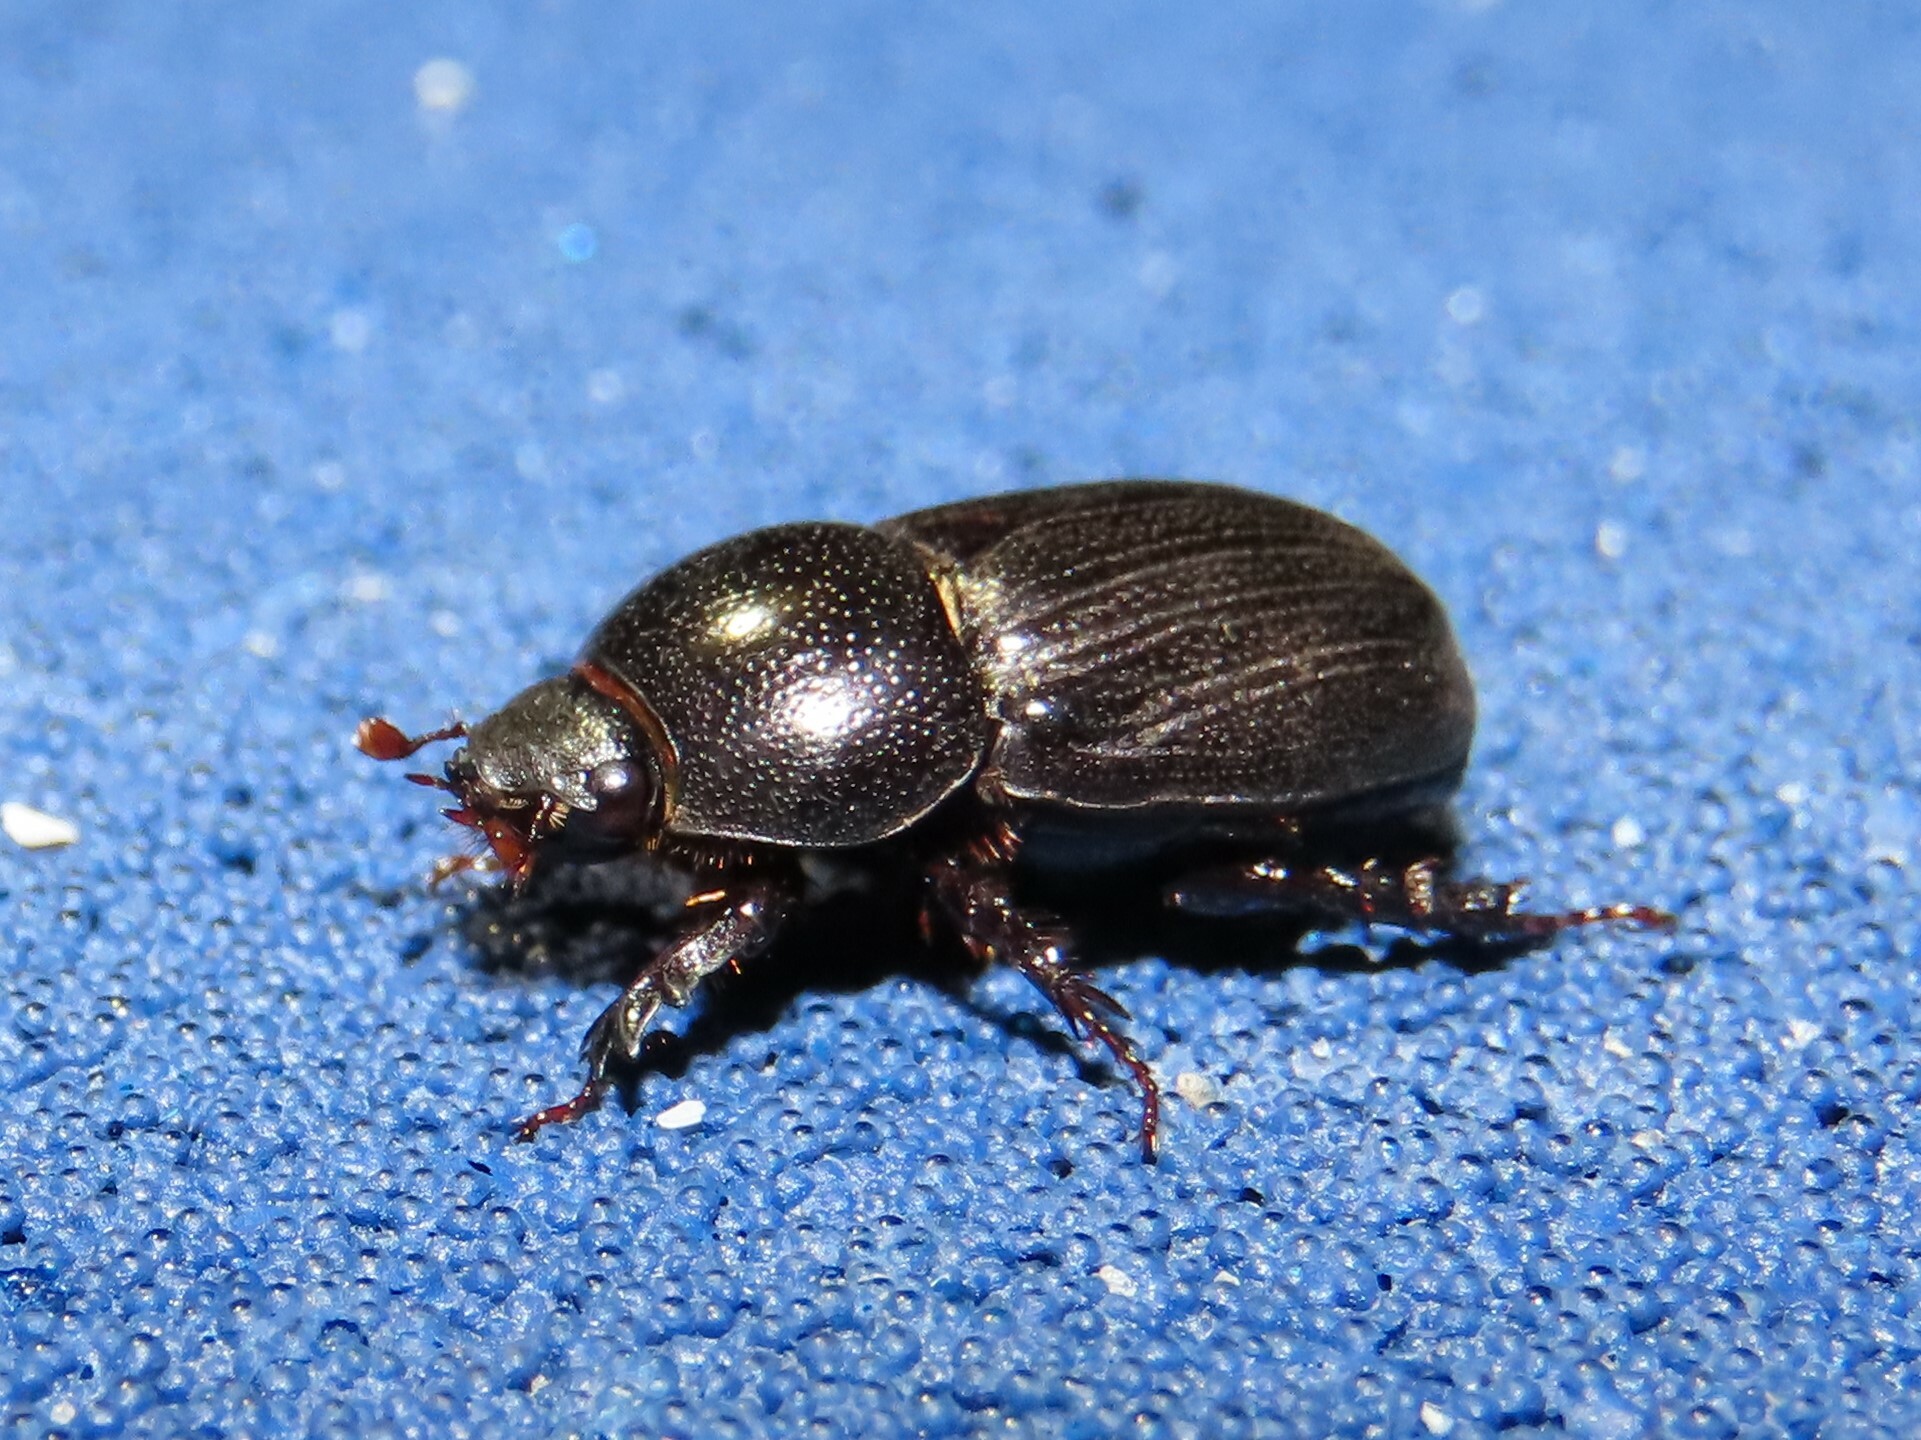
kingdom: Animalia
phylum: Arthropoda
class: Insecta
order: Coleoptera
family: Scarabaeidae
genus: Euetheola
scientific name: Euetheola rugiceps
